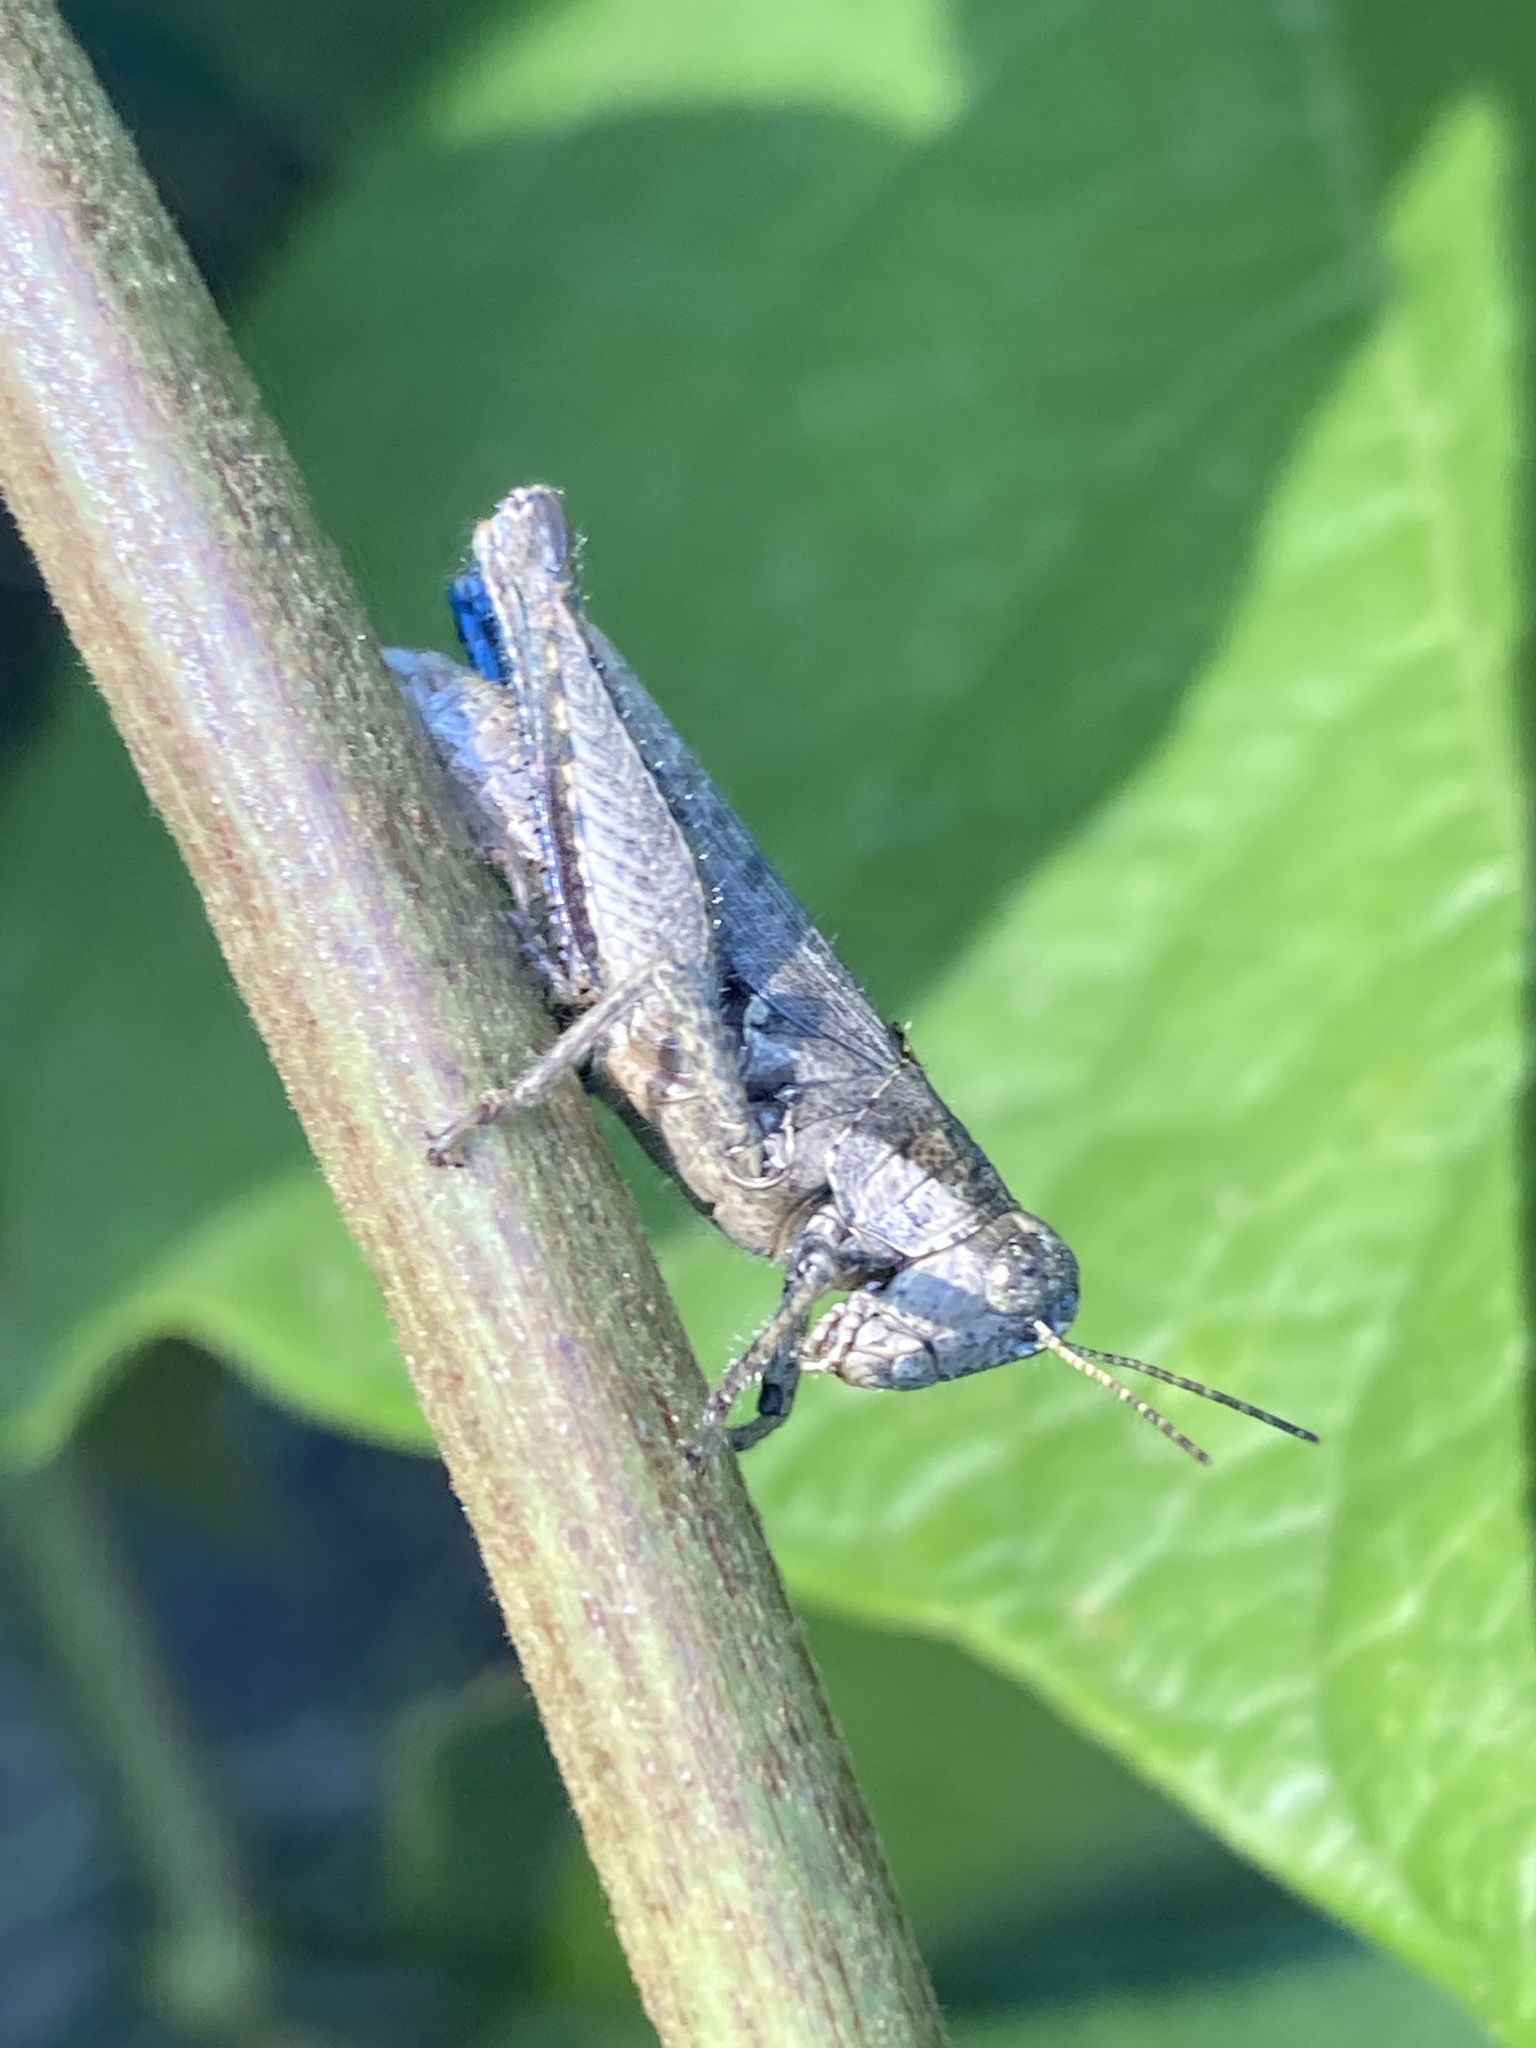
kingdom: Animalia
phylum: Arthropoda
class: Insecta
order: Orthoptera
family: Acrididae
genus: Ronderosia
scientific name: Ronderosia bergii
